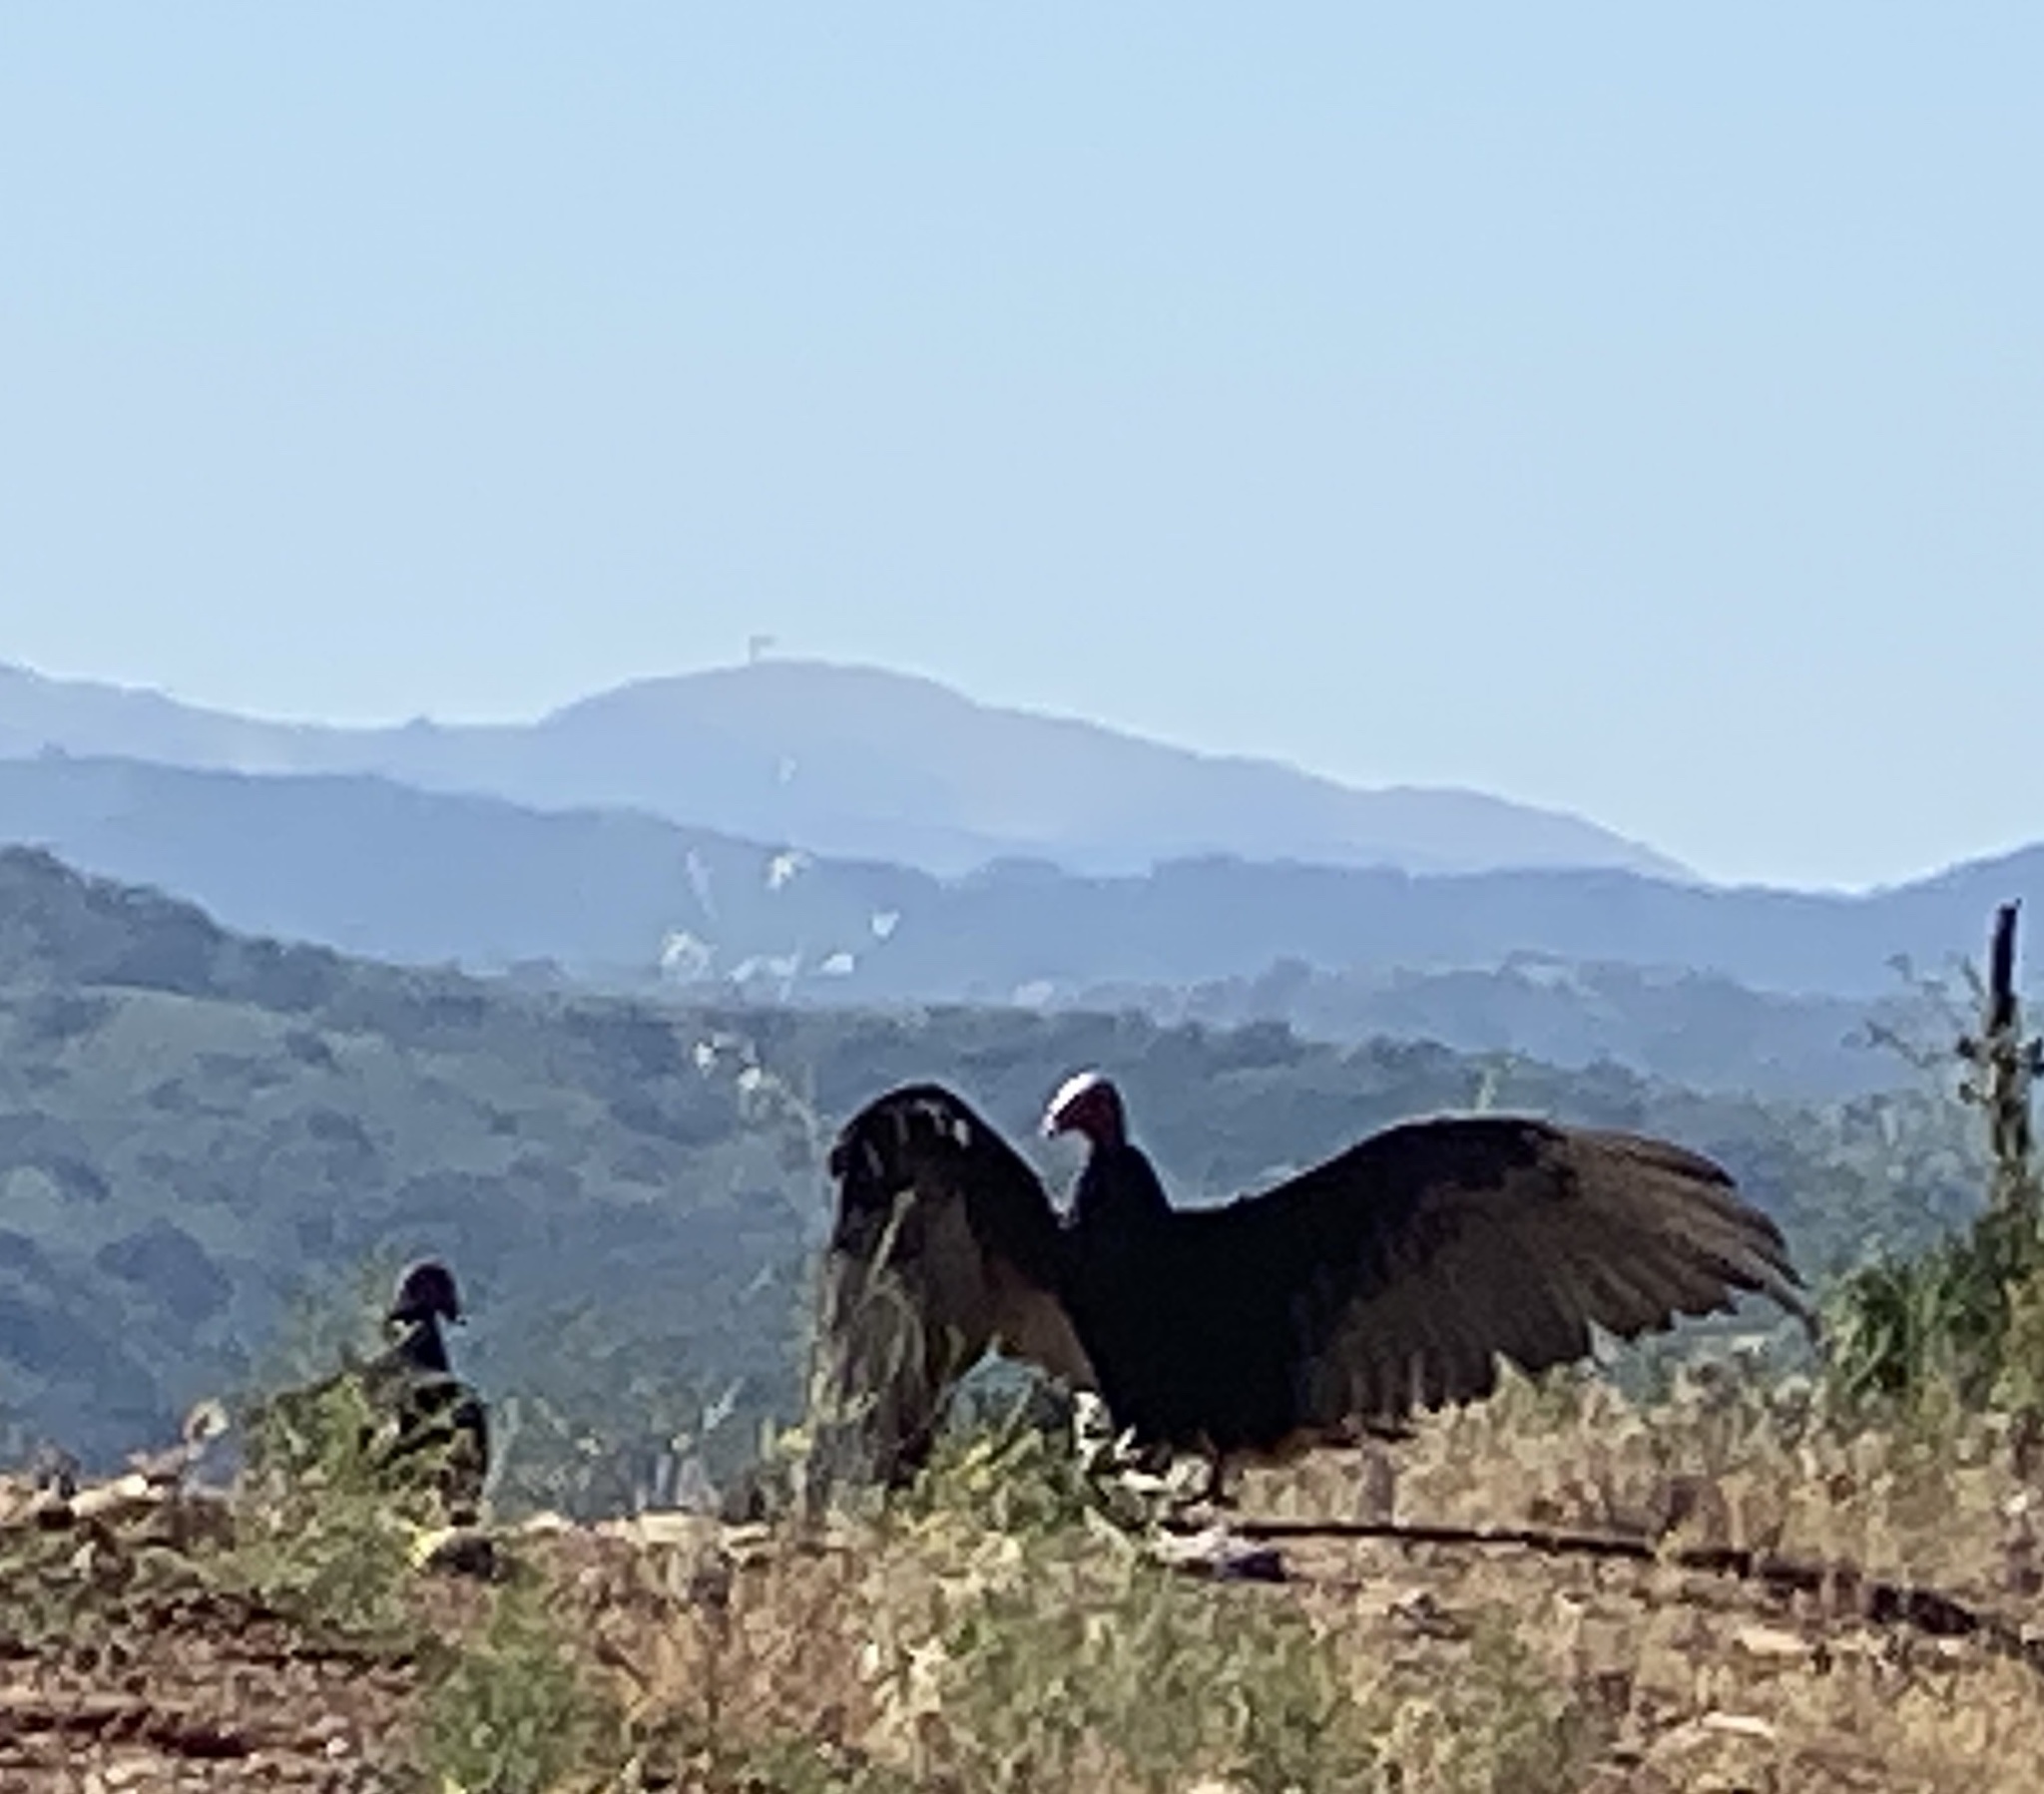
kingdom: Animalia
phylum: Chordata
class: Aves
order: Accipitriformes
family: Cathartidae
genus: Cathartes
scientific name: Cathartes aura
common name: Turkey vulture
